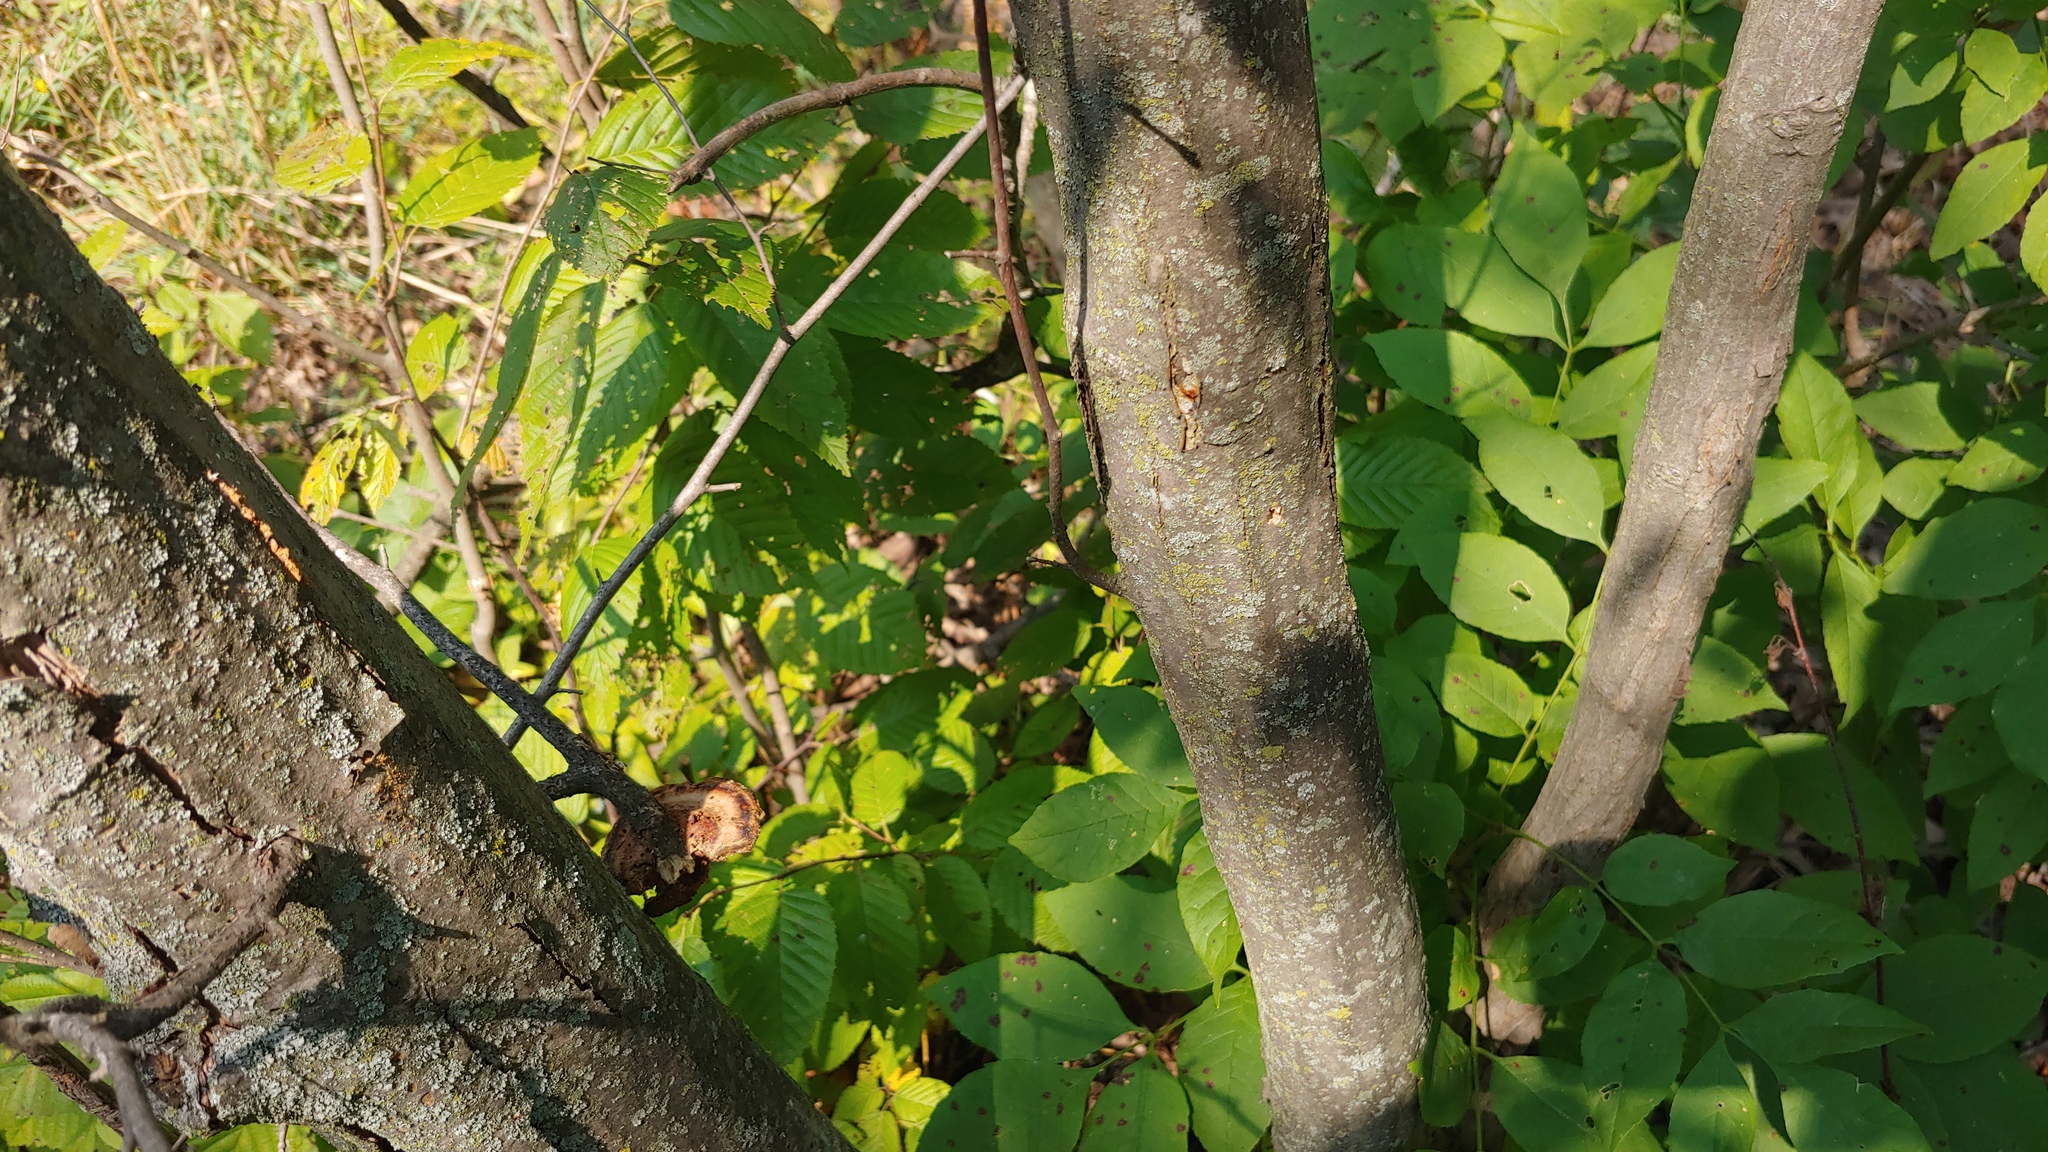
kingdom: Plantae
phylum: Tracheophyta
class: Magnoliopsida
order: Fagales
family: Betulaceae
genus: Carpinus
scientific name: Carpinus caroliniana
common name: American hornbeam
